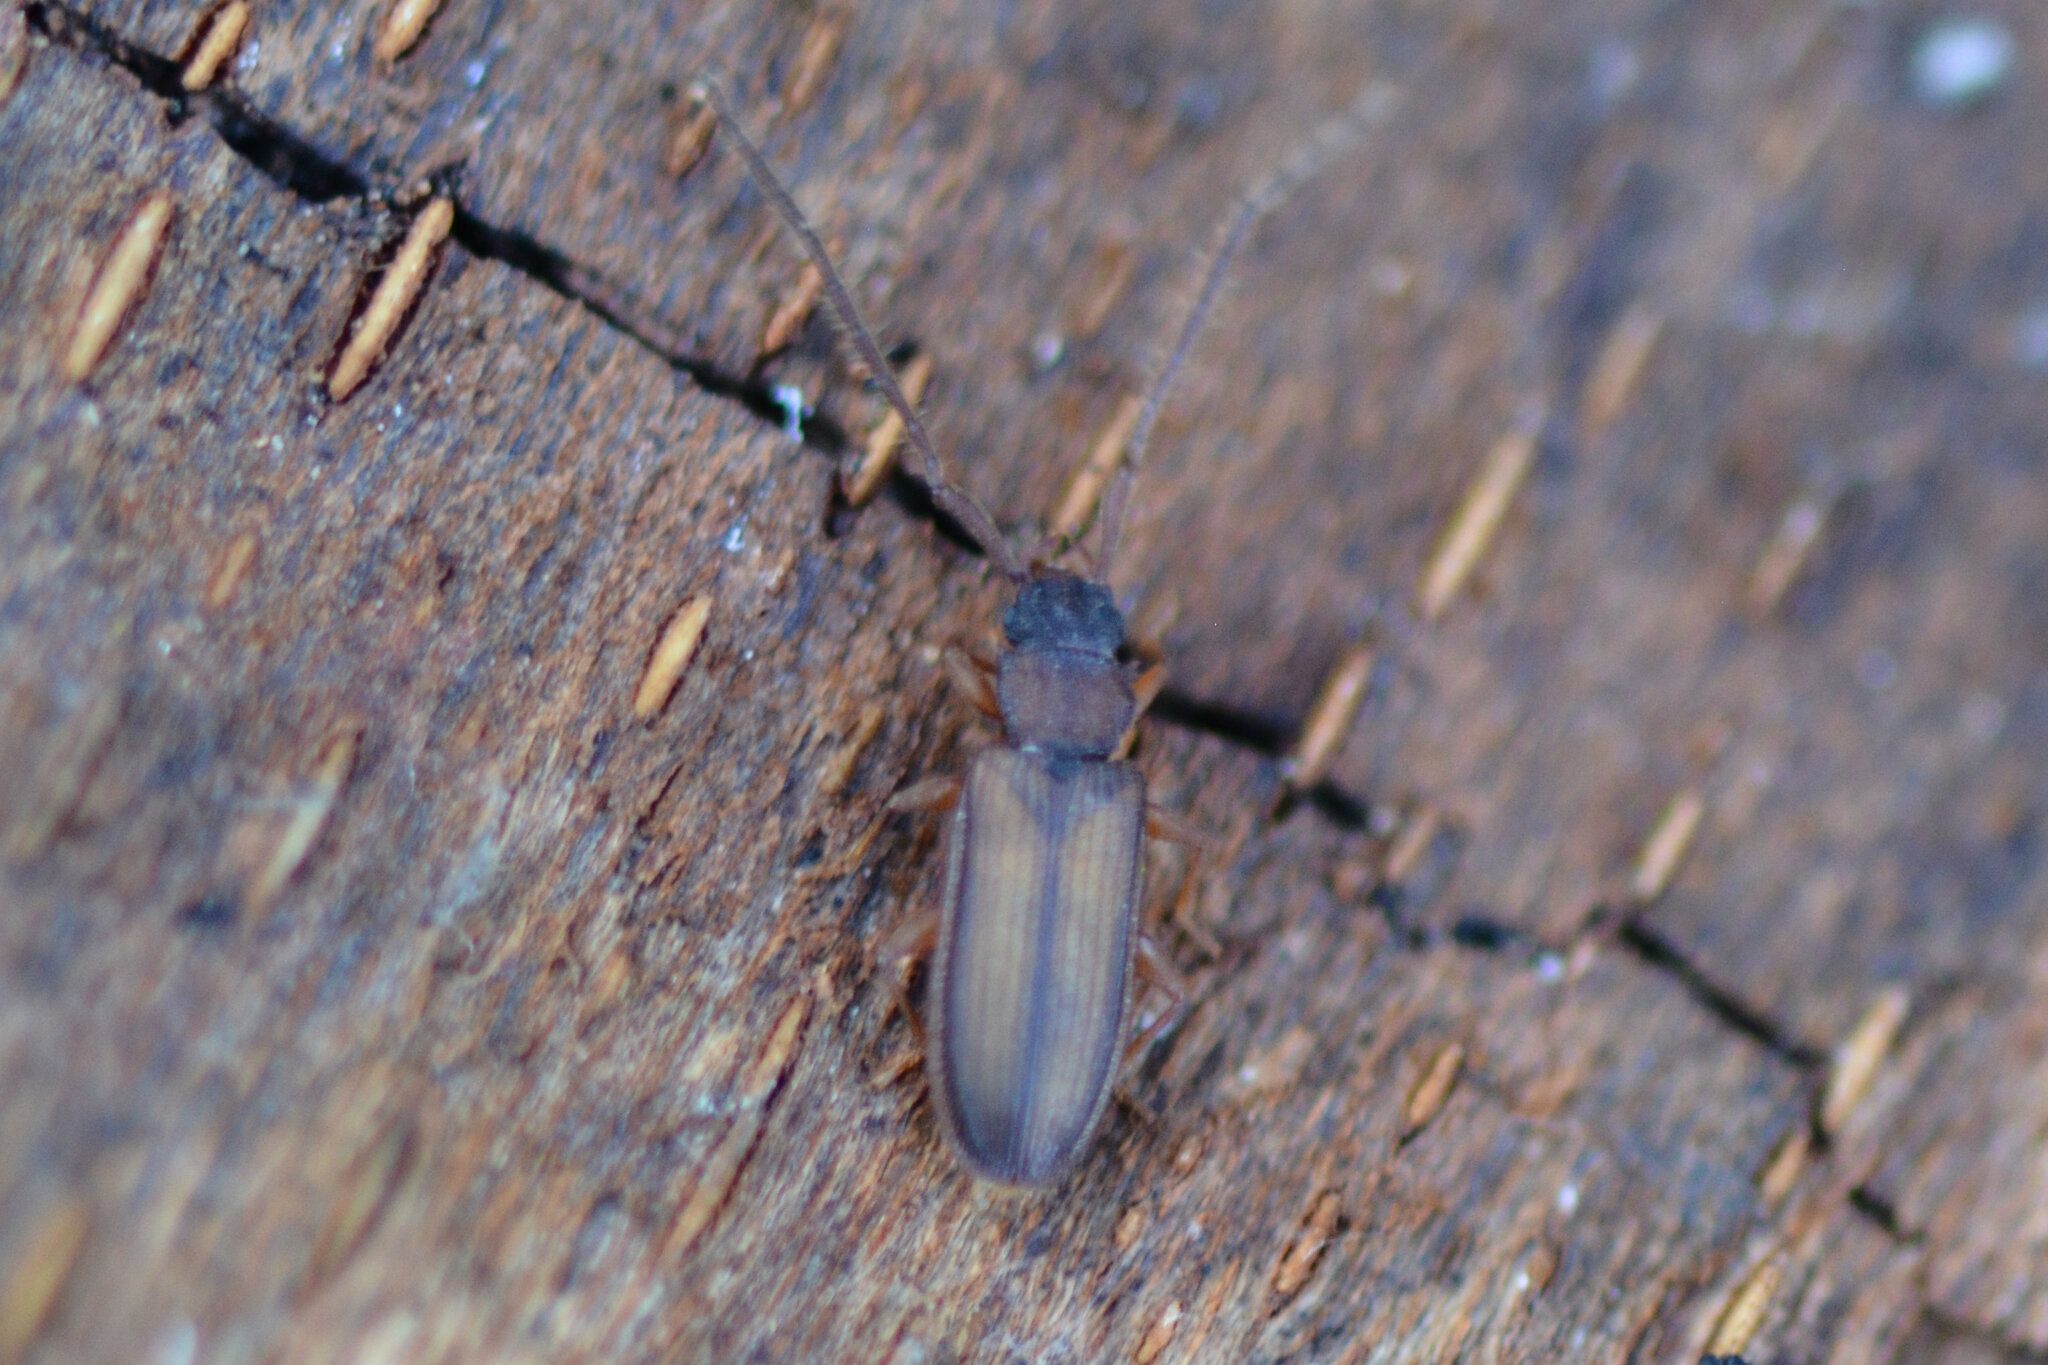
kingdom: Animalia
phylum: Arthropoda
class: Insecta
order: Coleoptera
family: Silvanidae
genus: Uleiota
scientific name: Uleiota planatus
